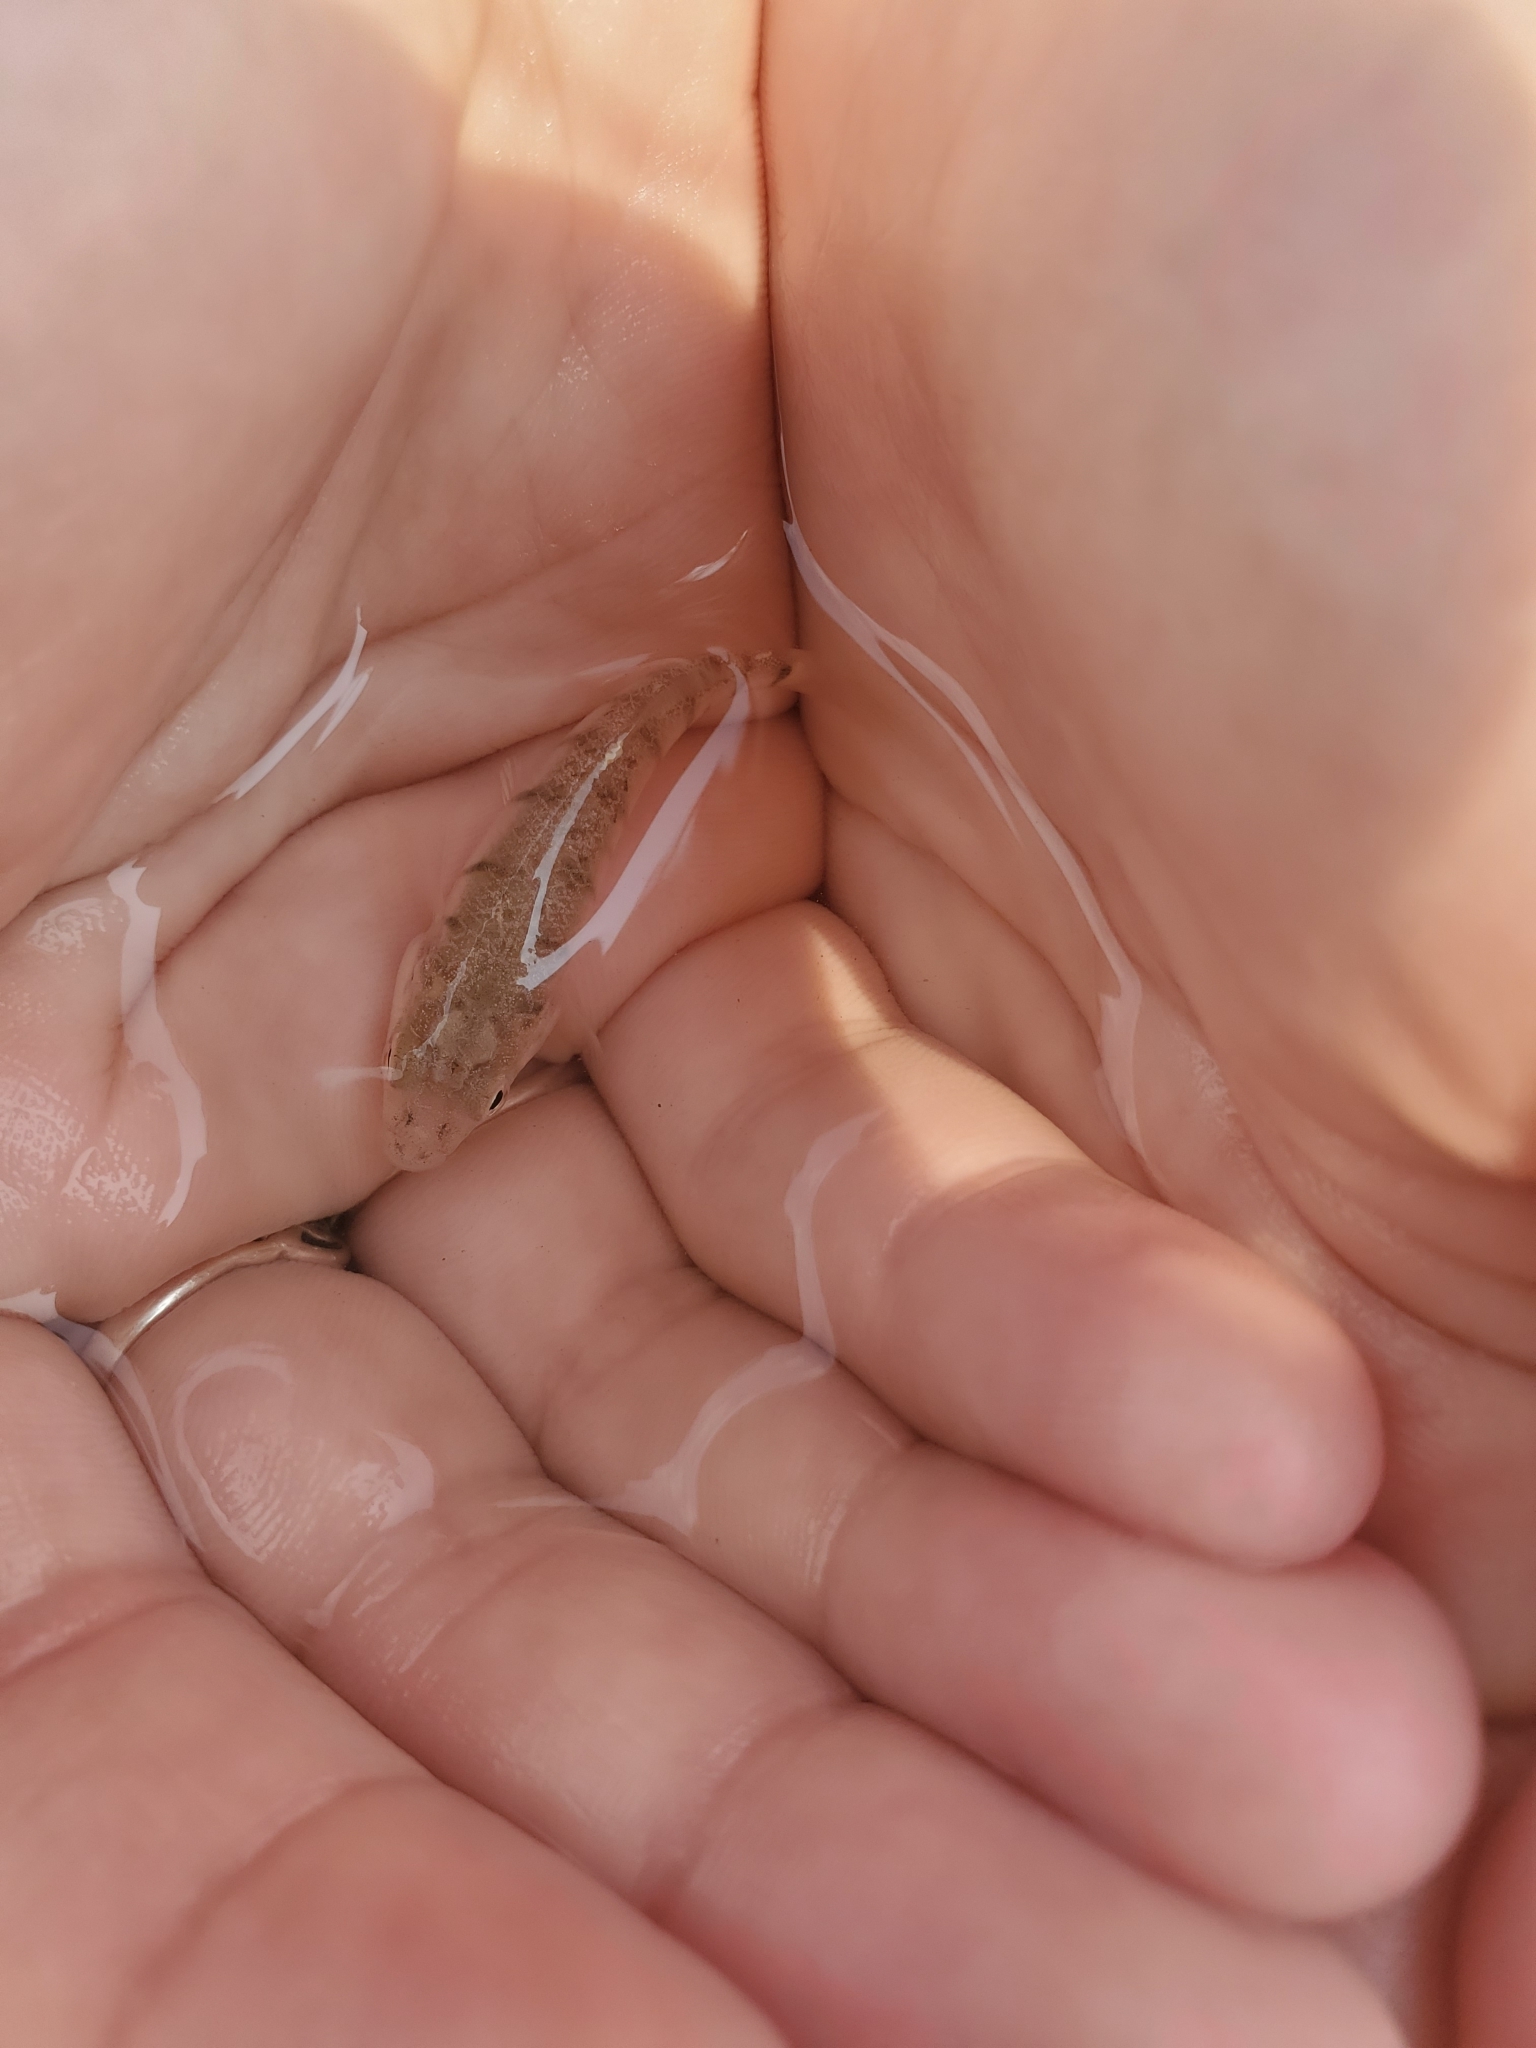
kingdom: Animalia
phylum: Chordata
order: Cyprinodontiformes
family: Fundulidae
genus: Fundulus
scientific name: Fundulus majalis
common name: Striped killifish
